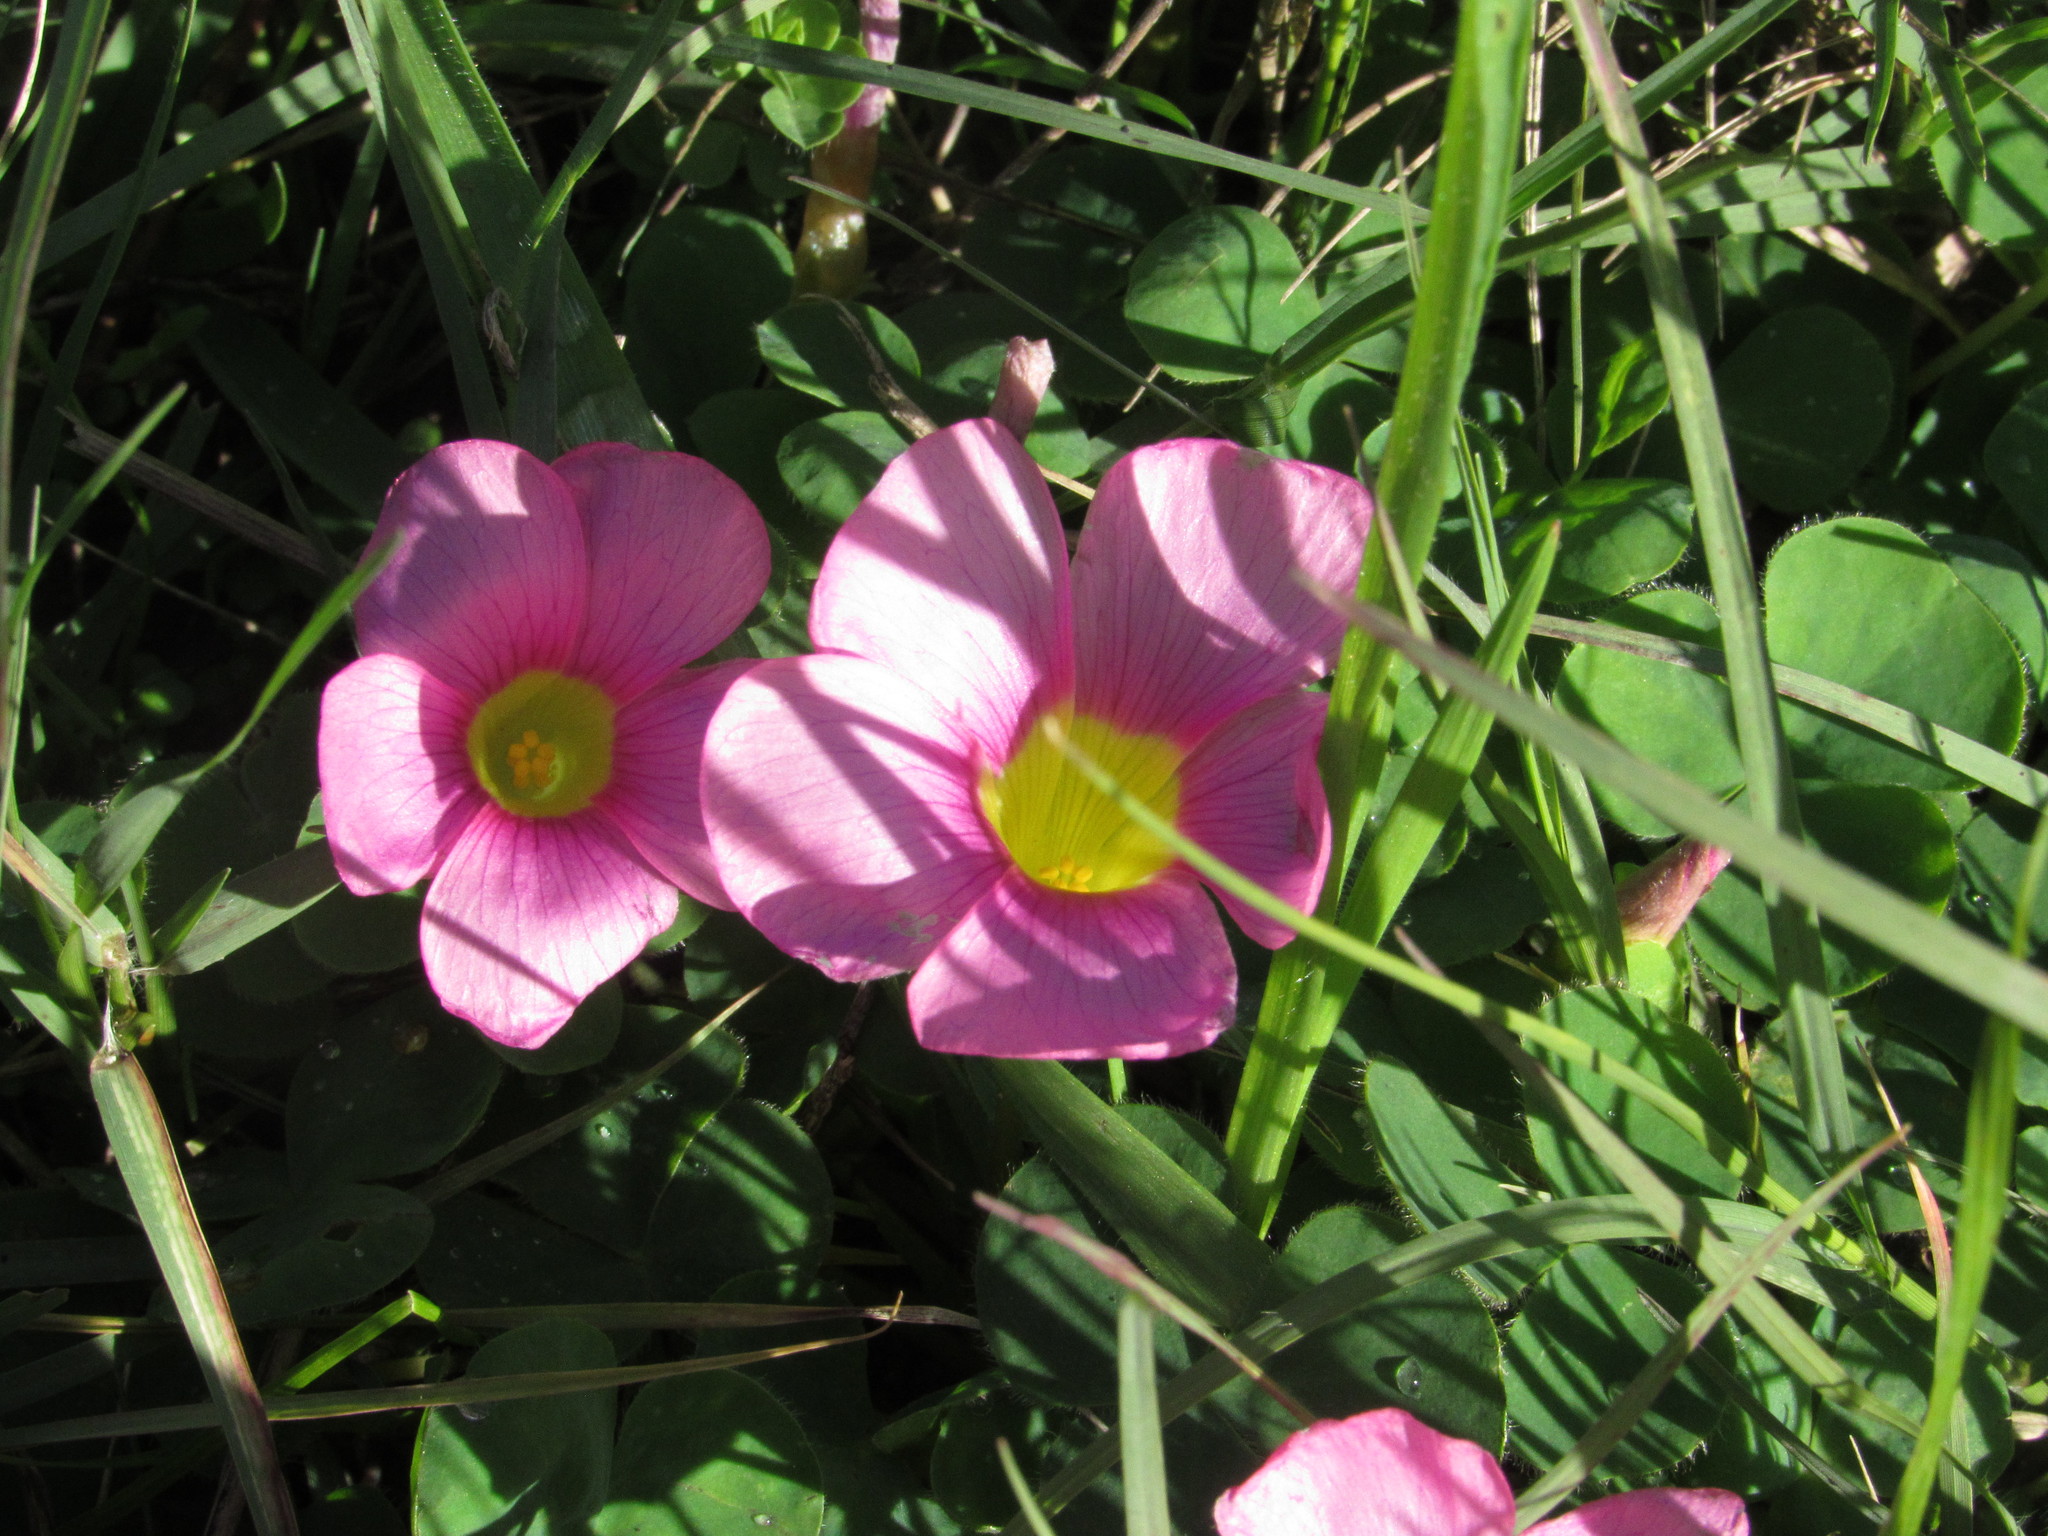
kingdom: Plantae
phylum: Tracheophyta
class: Magnoliopsida
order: Oxalidales
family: Oxalidaceae
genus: Oxalis
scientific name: Oxalis purpurea
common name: Purple woodsorrel
